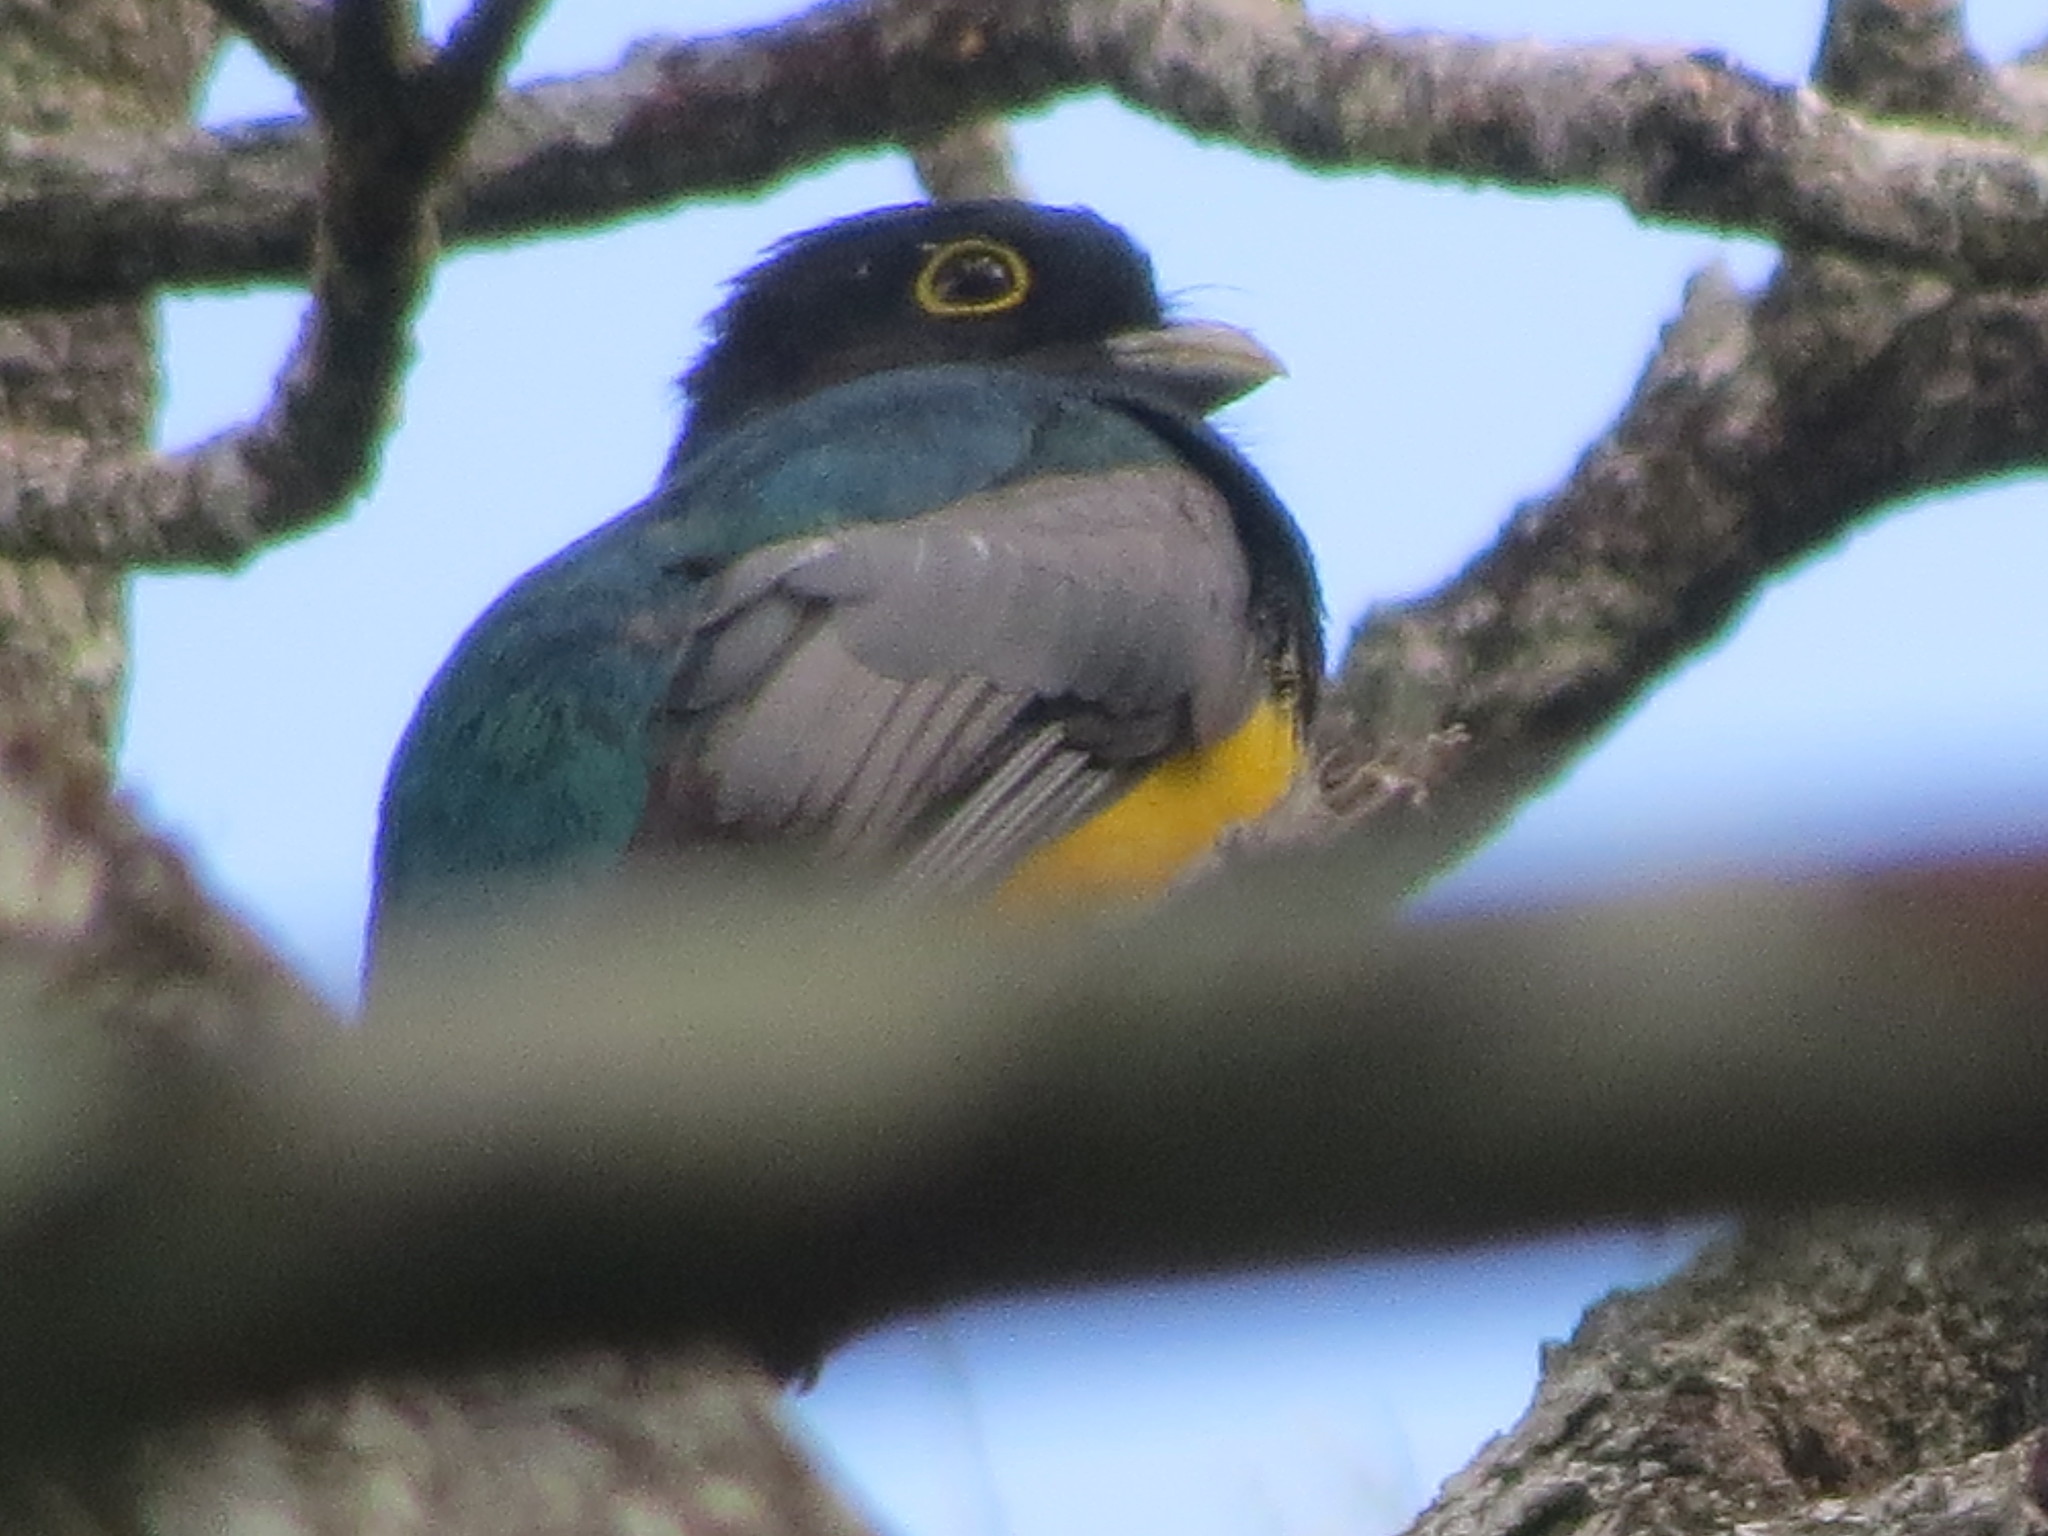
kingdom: Animalia
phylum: Chordata
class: Aves
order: Trogoniformes
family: Trogonidae
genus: Trogon
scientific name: Trogon caligatus
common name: Gartered trogon
